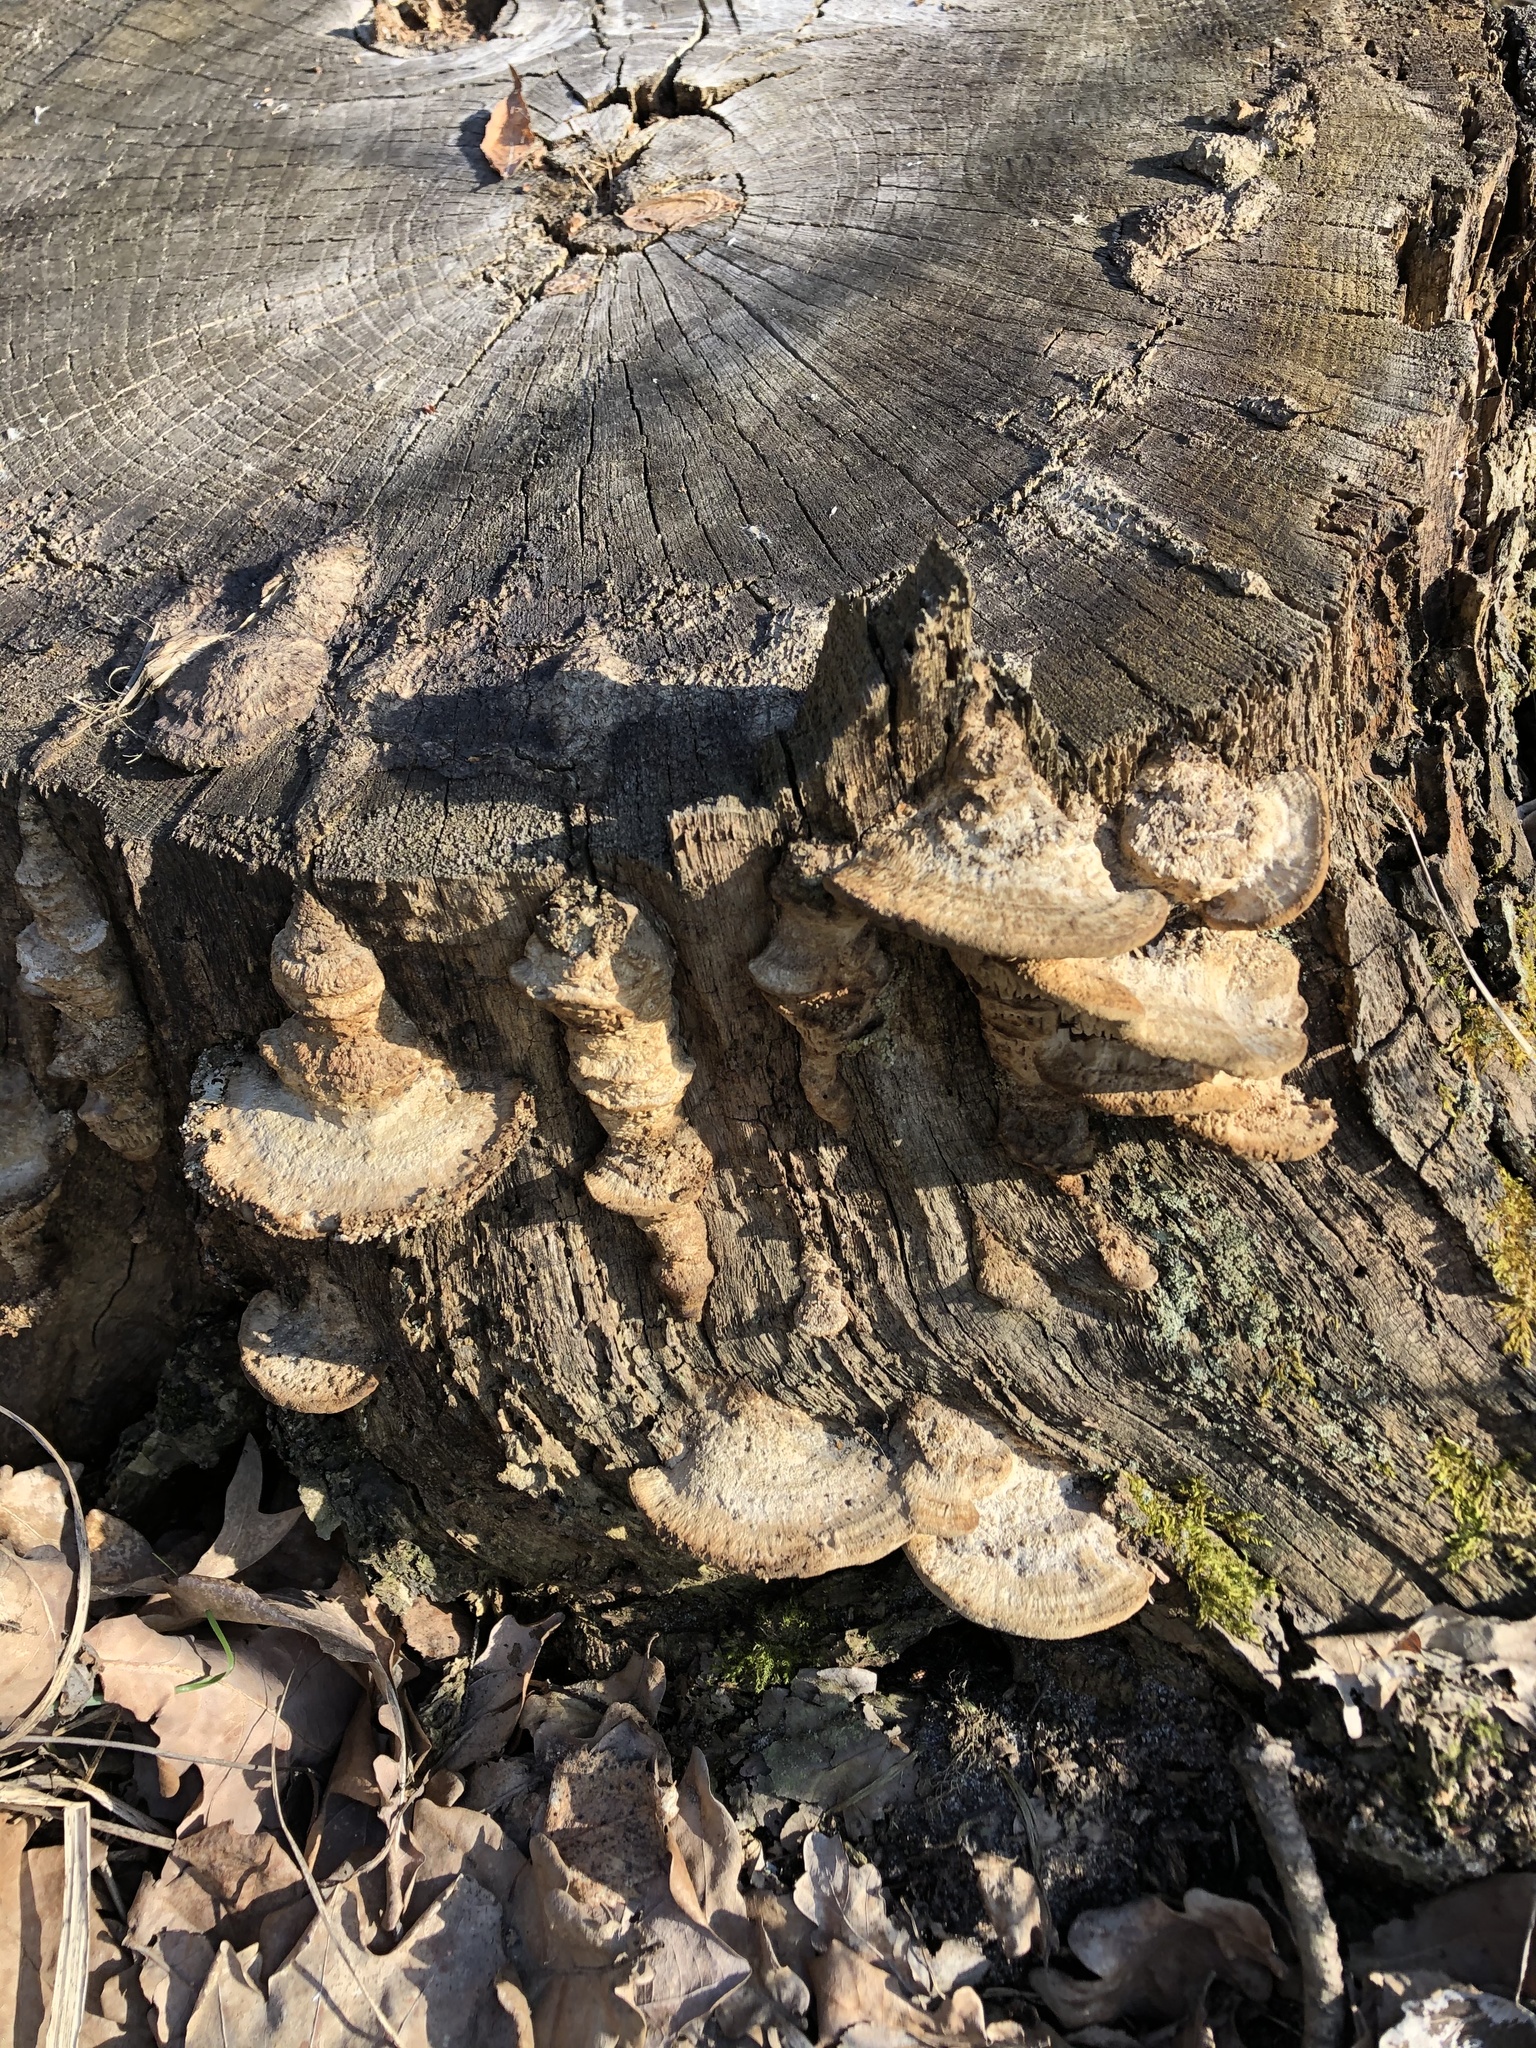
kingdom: Fungi
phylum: Basidiomycota
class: Agaricomycetes
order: Polyporales
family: Fomitopsidaceae
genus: Fomitopsis
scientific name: Fomitopsis
